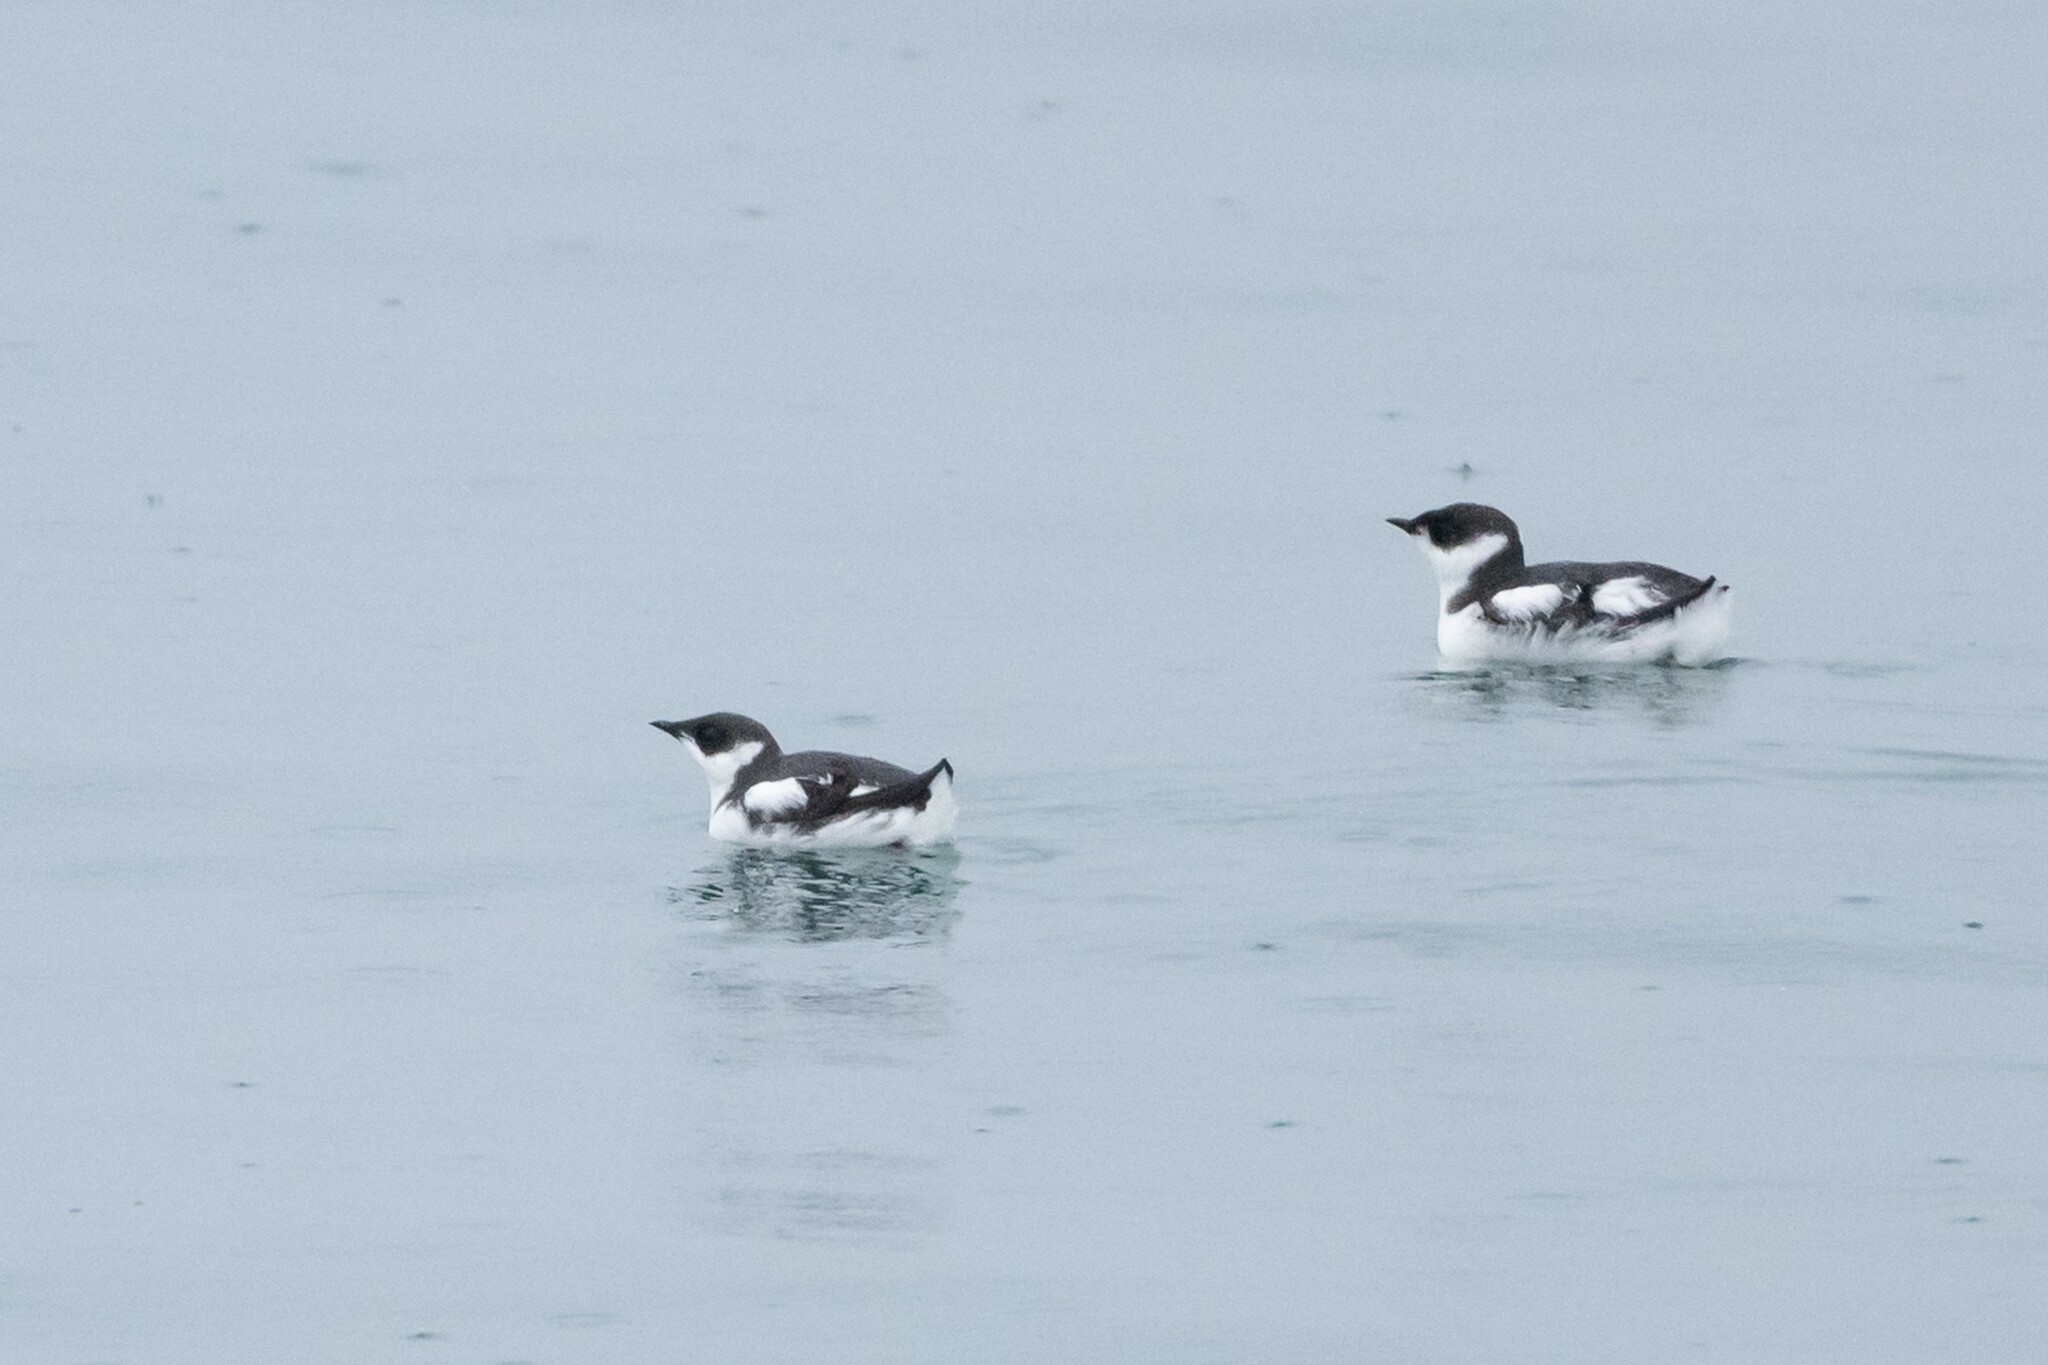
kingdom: Animalia
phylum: Chordata
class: Aves
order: Charadriiformes
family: Alcidae
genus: Brachyramphus
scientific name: Brachyramphus marmoratus
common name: Marbled murrelet
